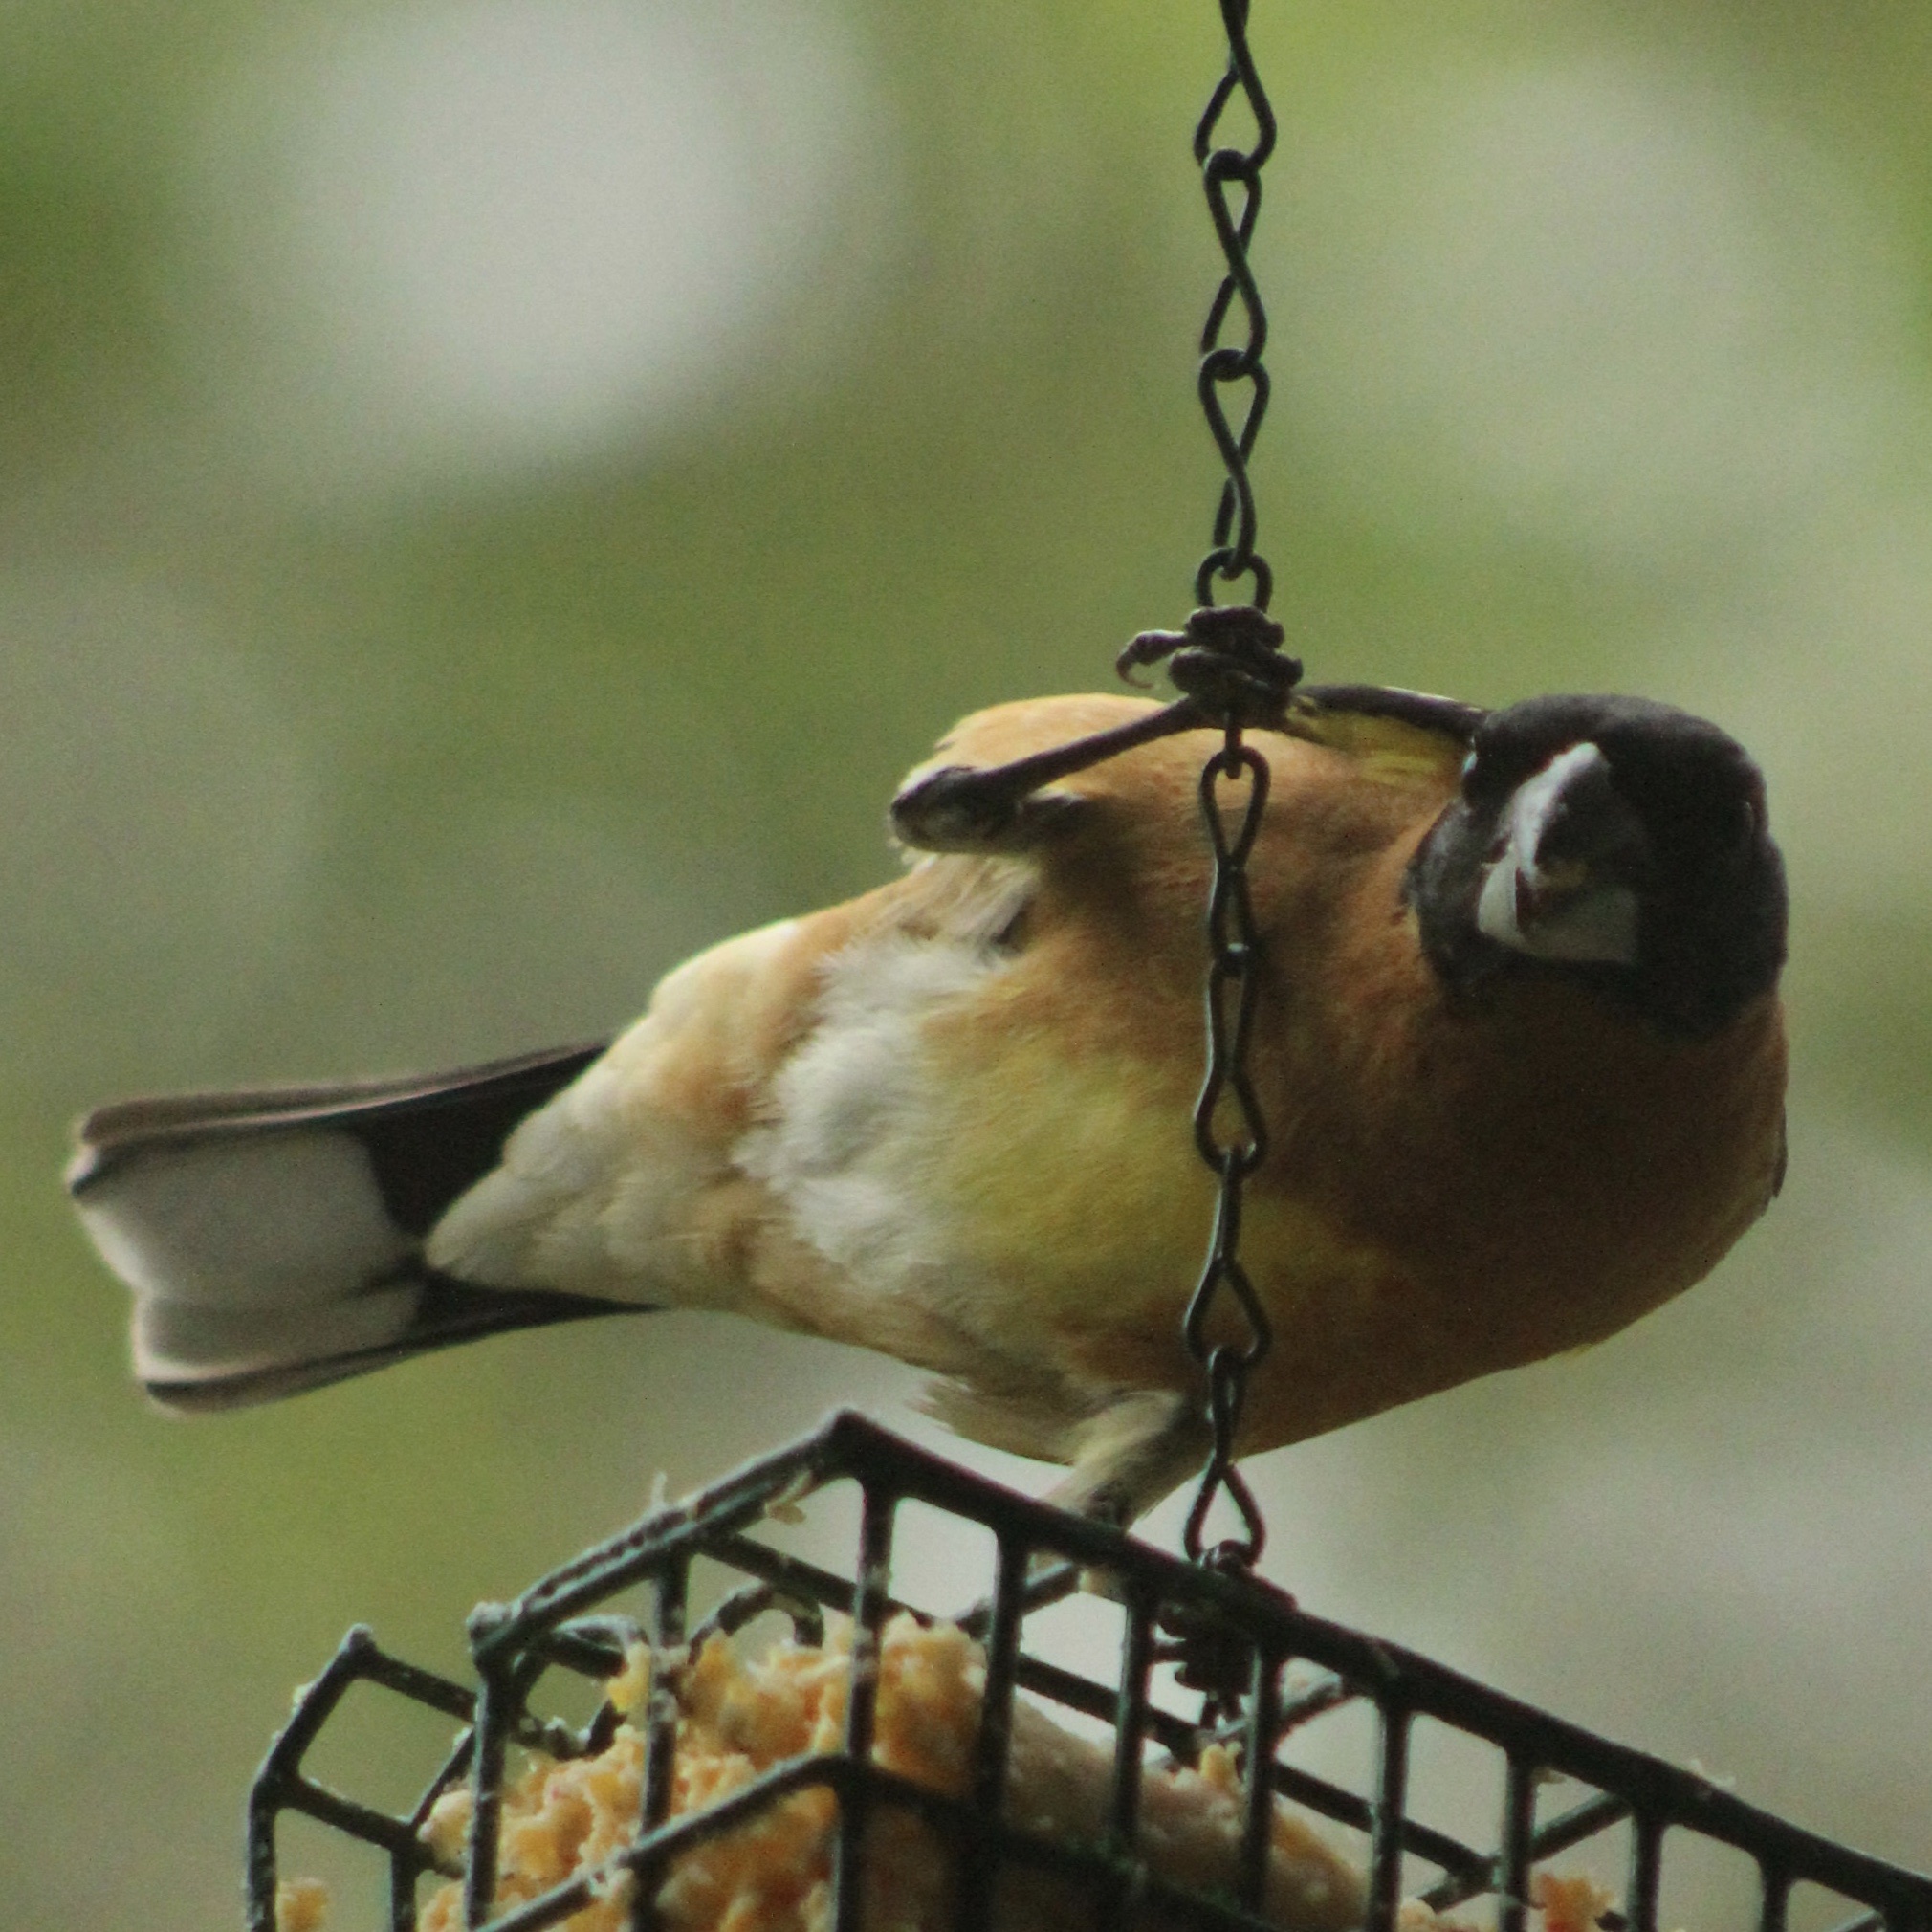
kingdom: Animalia
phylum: Chordata
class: Aves
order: Passeriformes
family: Cardinalidae
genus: Pheucticus
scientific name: Pheucticus melanocephalus
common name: Black-headed grosbeak
